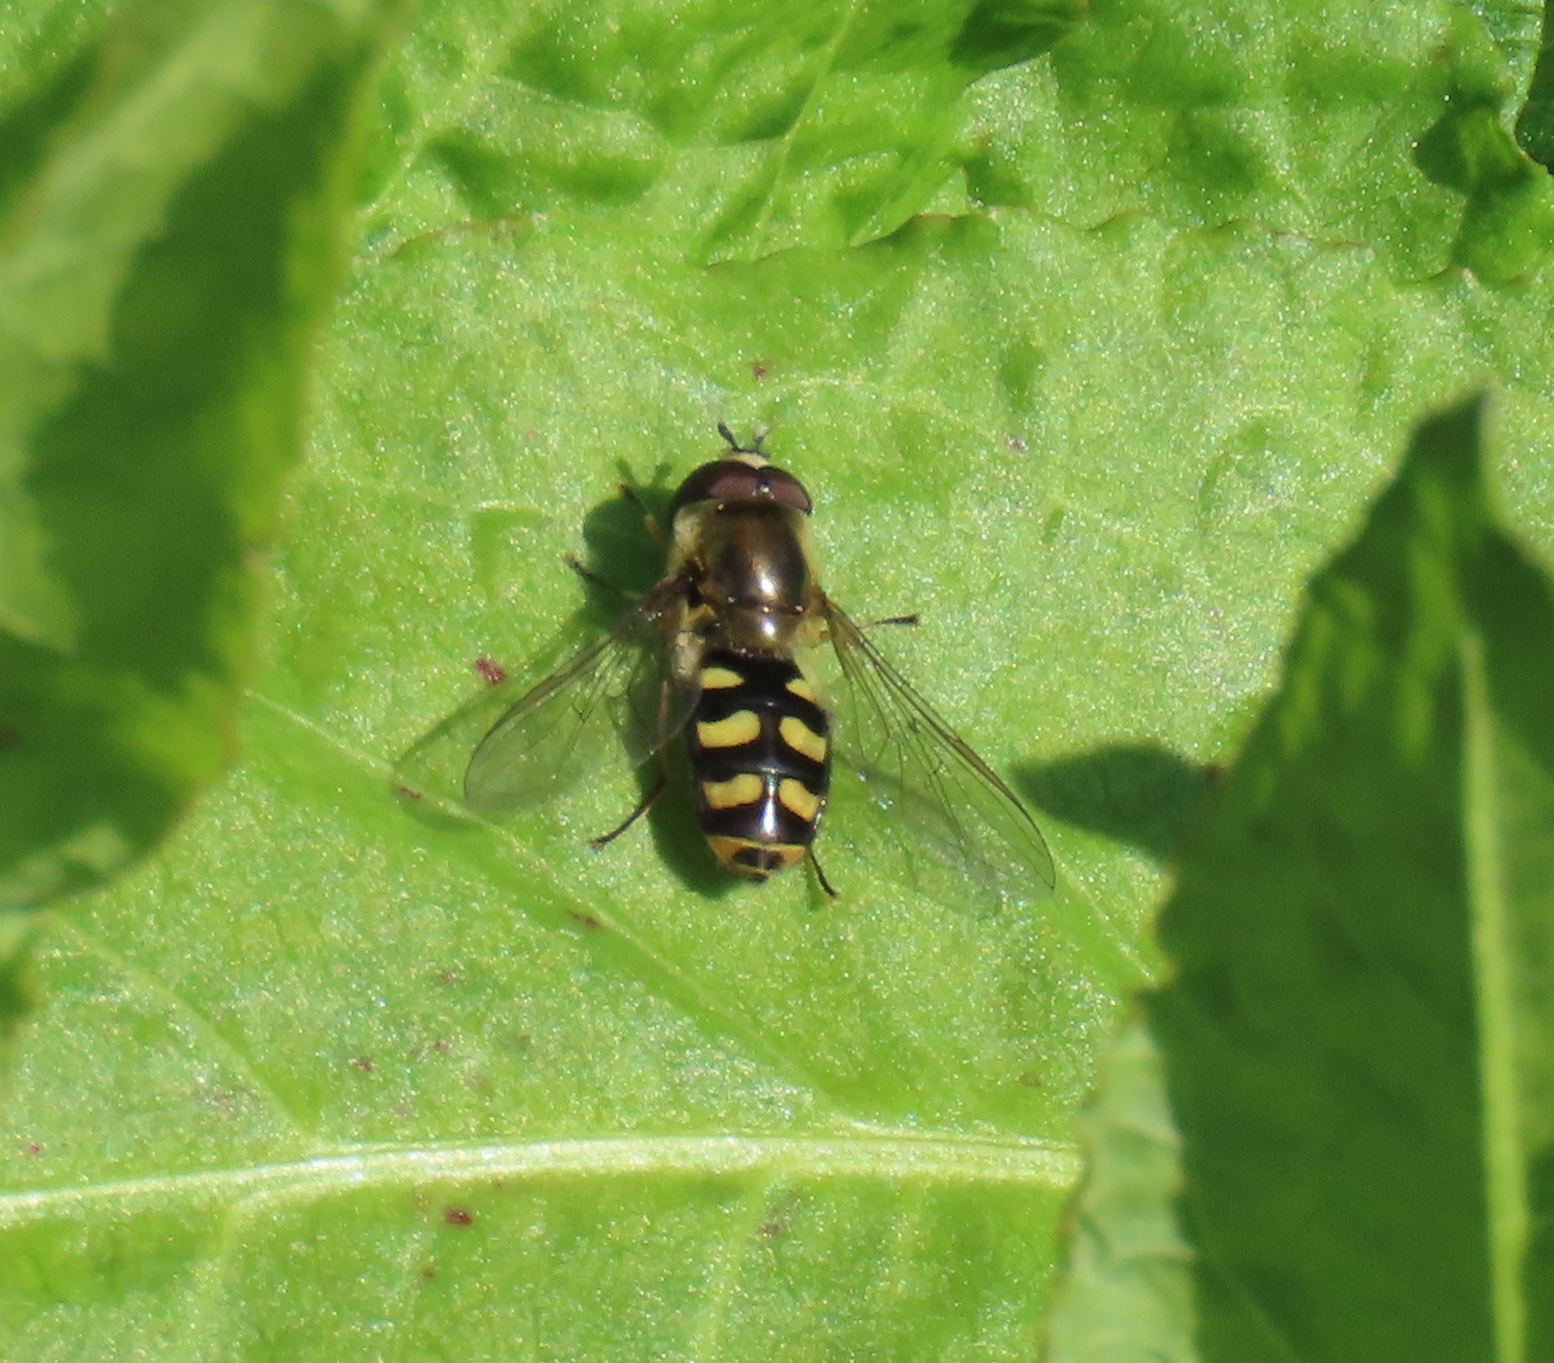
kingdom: Animalia
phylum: Arthropoda
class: Insecta
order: Diptera
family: Syrphidae
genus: Eupeodes
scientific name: Eupeodes
